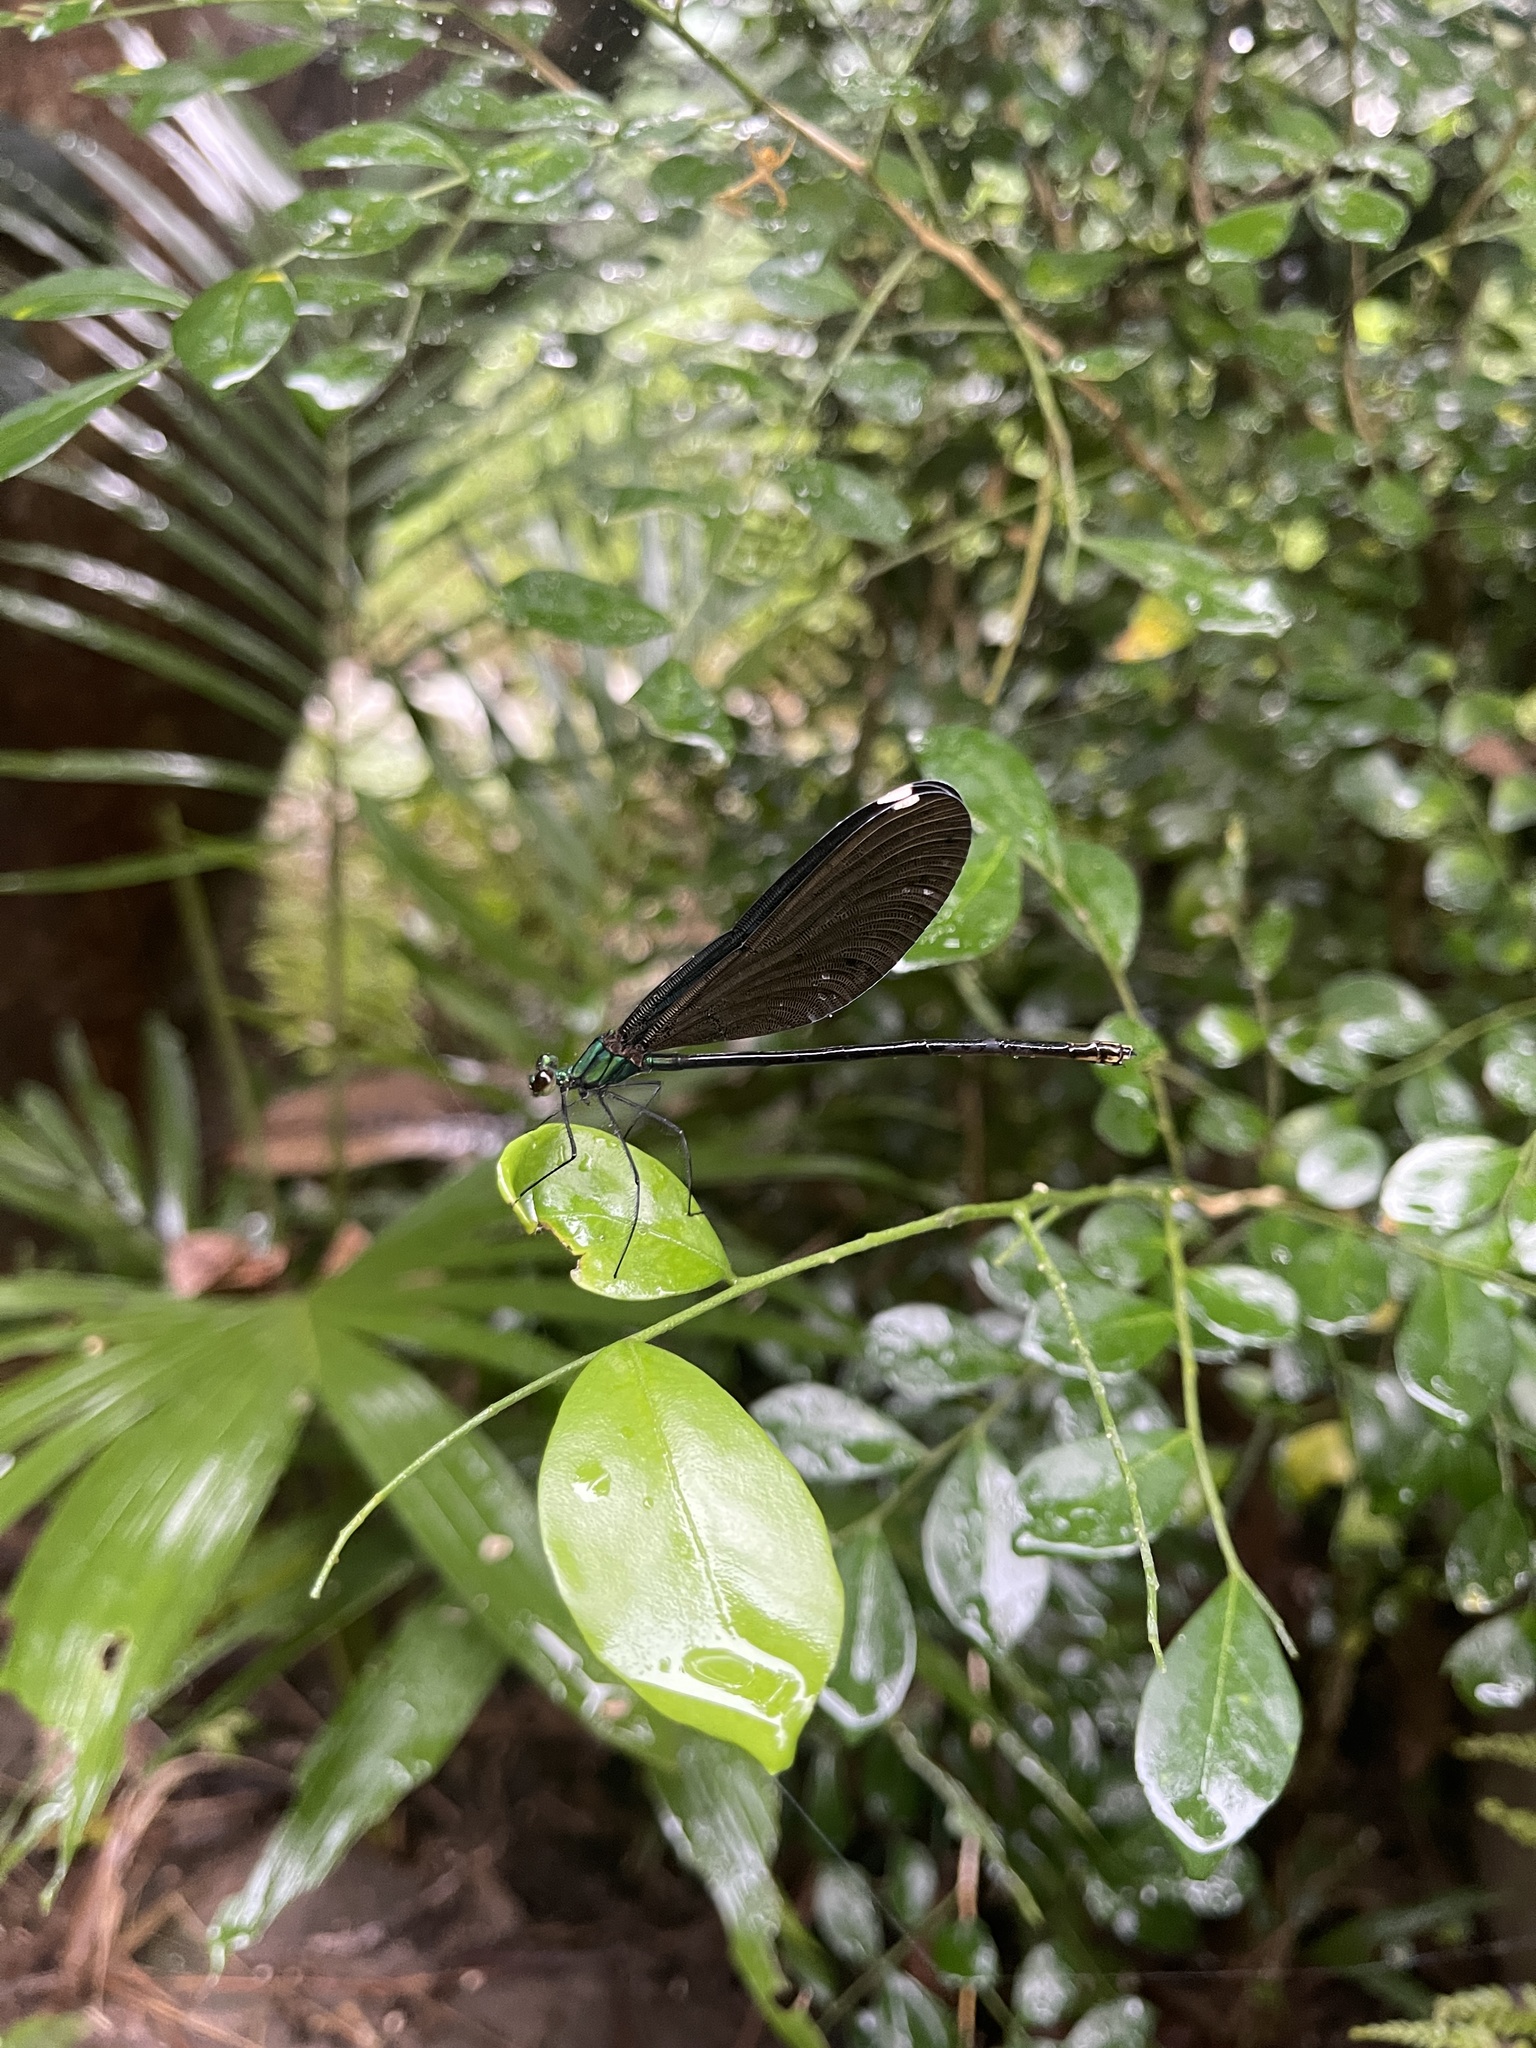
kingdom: Animalia
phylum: Arthropoda
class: Insecta
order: Odonata
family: Calopterygidae
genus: Matrona
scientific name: Matrona cyanoptera
